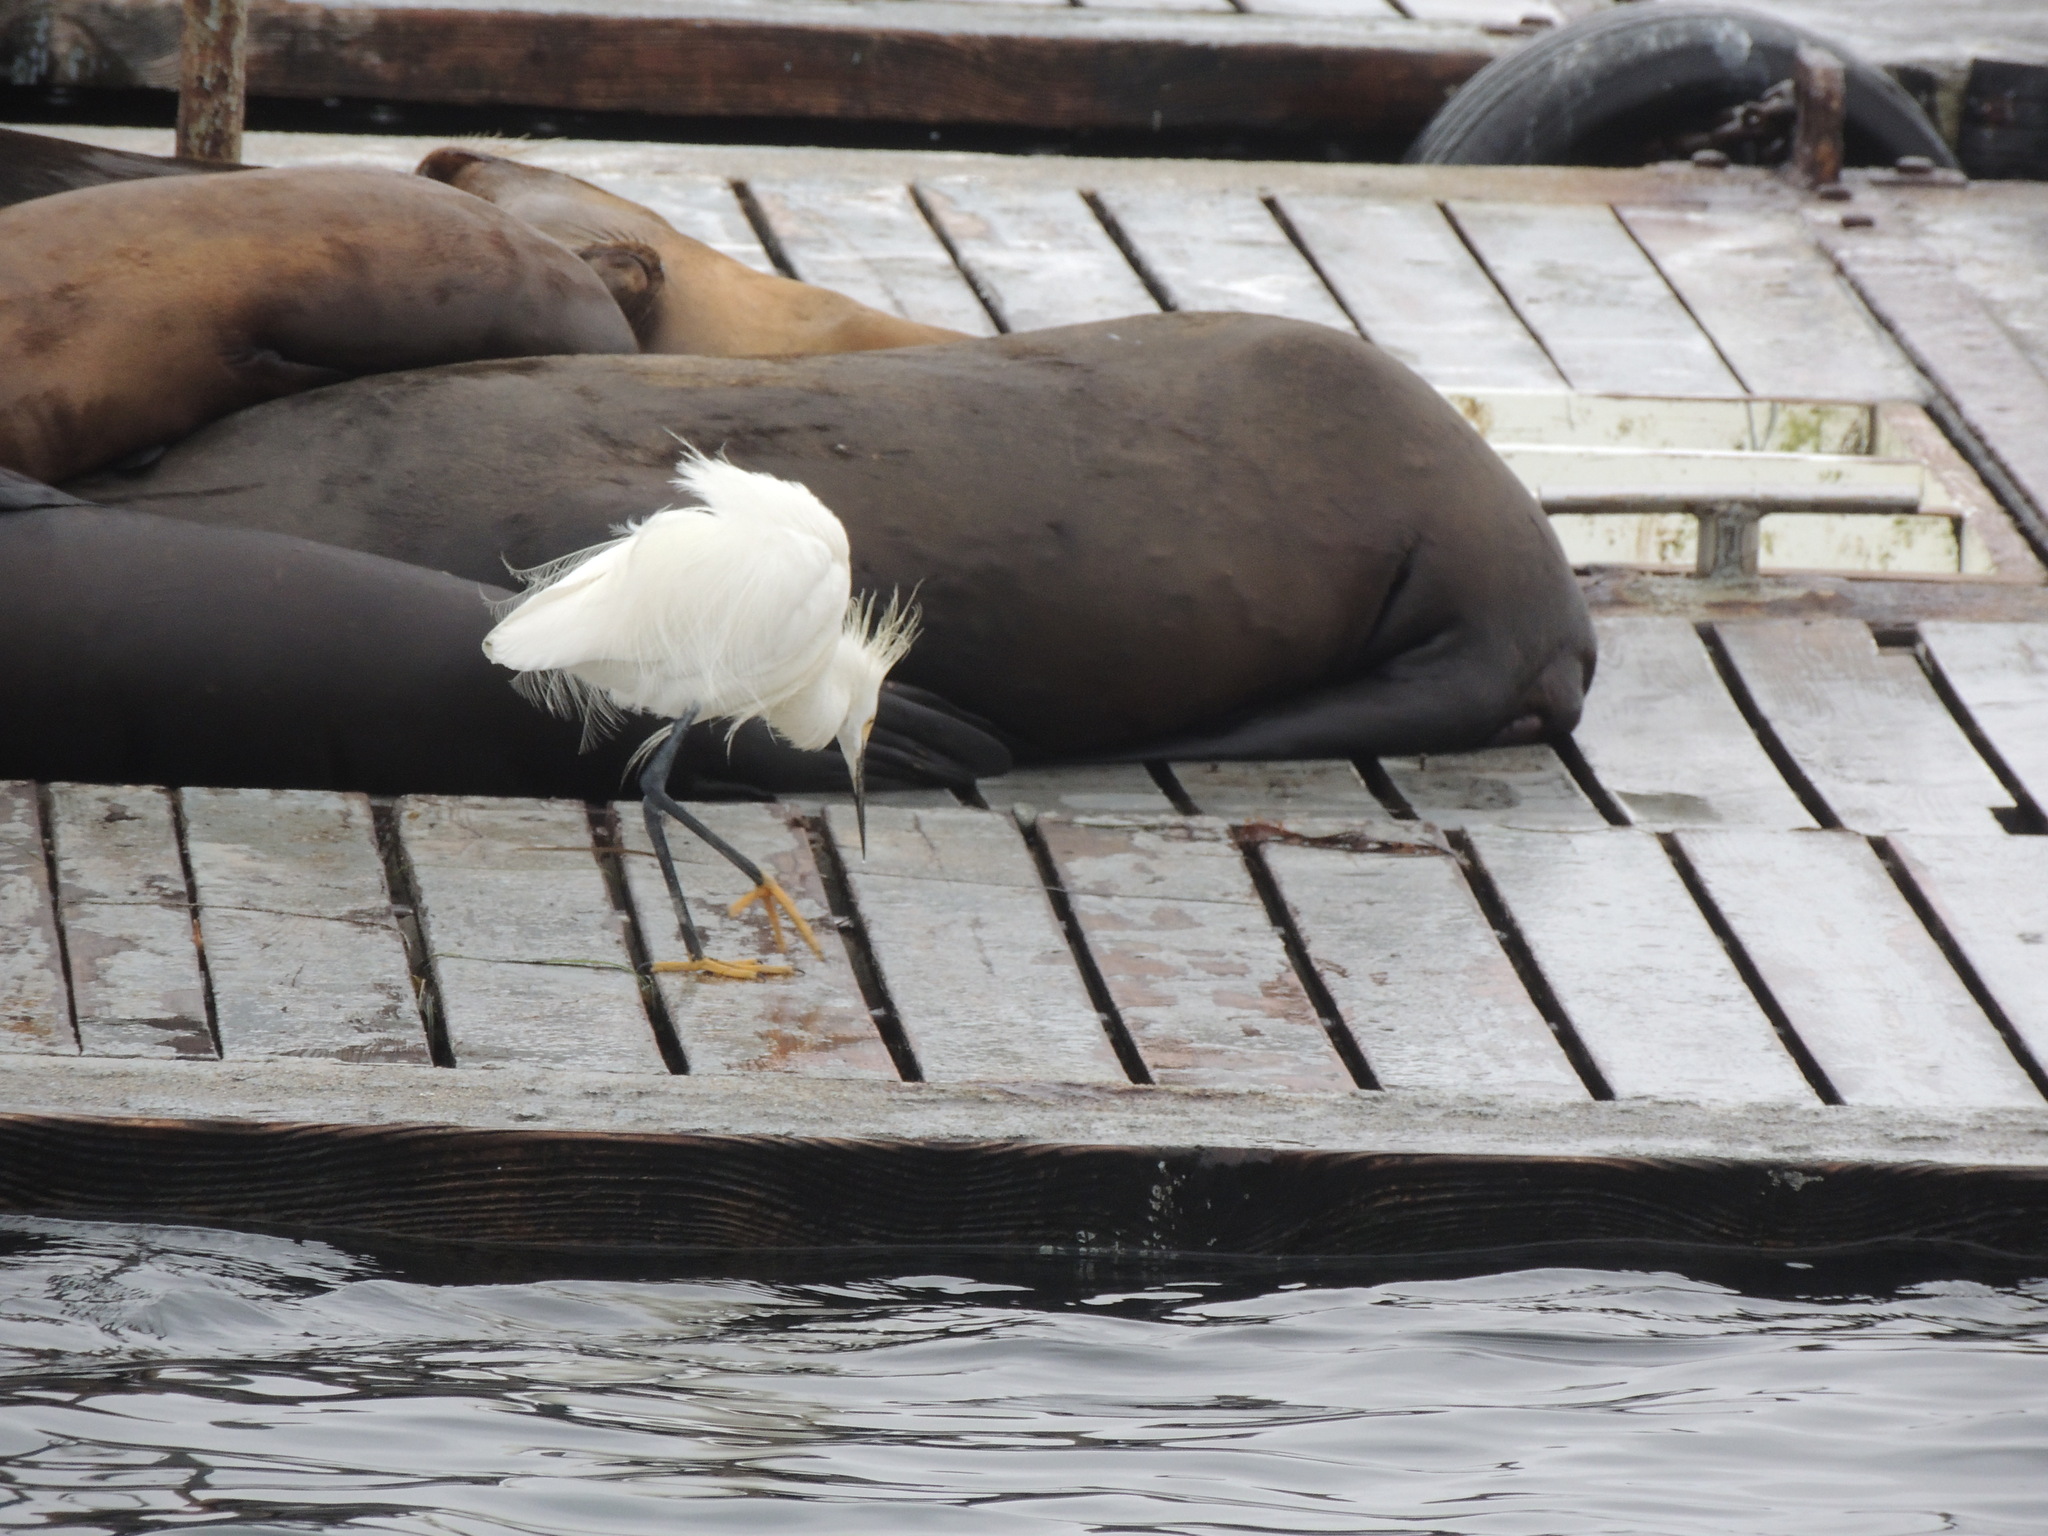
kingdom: Animalia
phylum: Chordata
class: Aves
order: Pelecaniformes
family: Ardeidae
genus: Egretta
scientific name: Egretta thula
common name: Snowy egret
